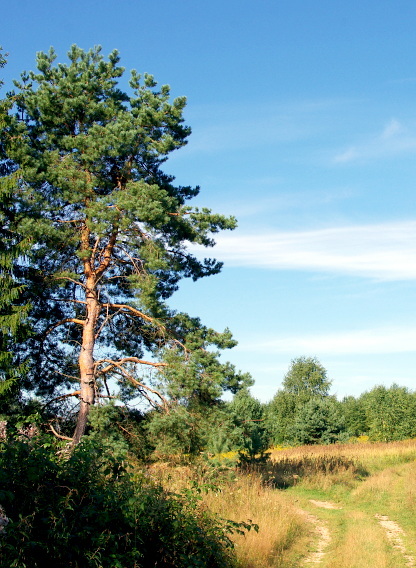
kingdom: Plantae
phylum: Tracheophyta
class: Pinopsida
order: Pinales
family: Pinaceae
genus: Pinus
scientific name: Pinus sylvestris
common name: Scots pine
